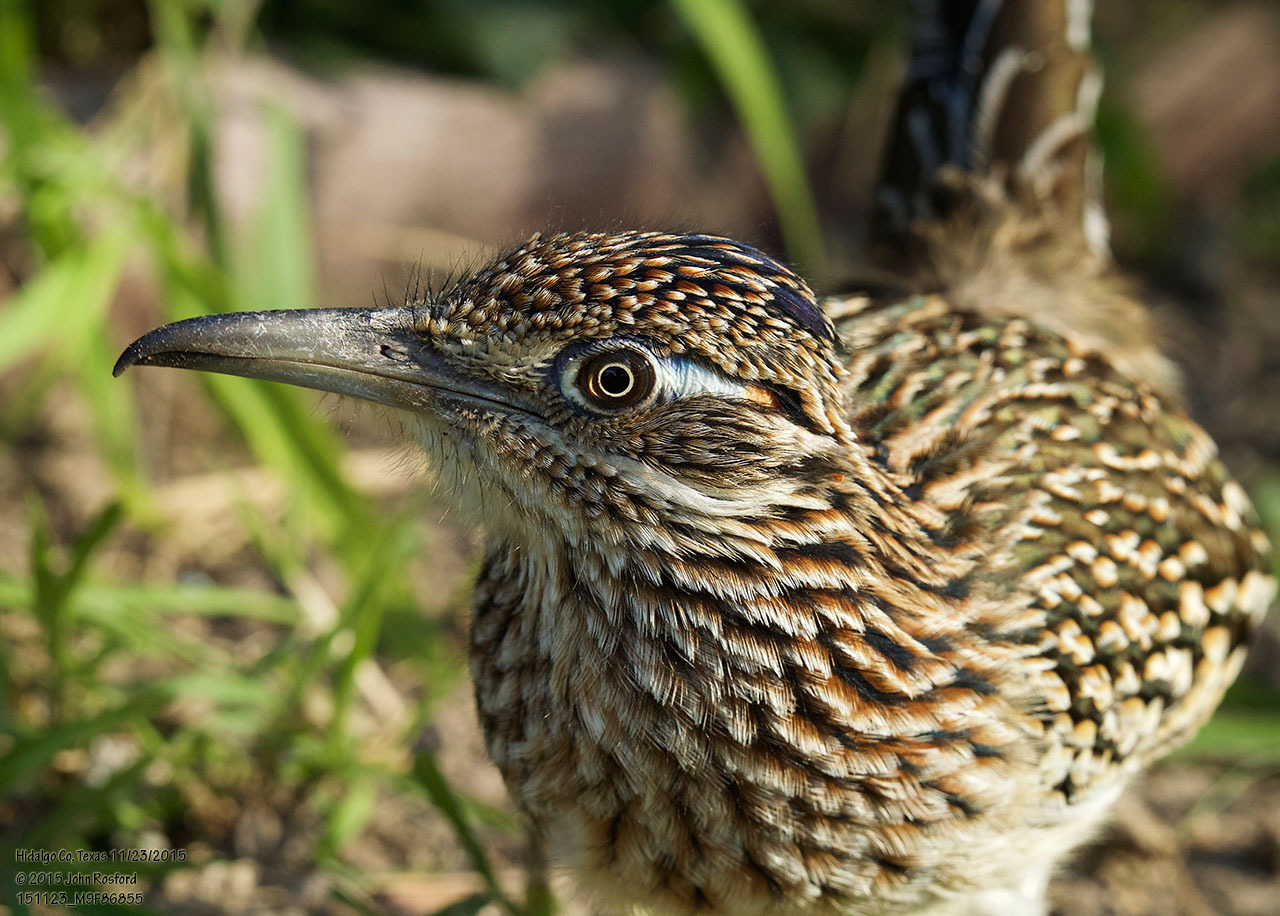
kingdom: Animalia
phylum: Chordata
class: Aves
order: Cuculiformes
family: Cuculidae
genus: Geococcyx
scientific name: Geococcyx californianus
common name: Greater roadrunner
